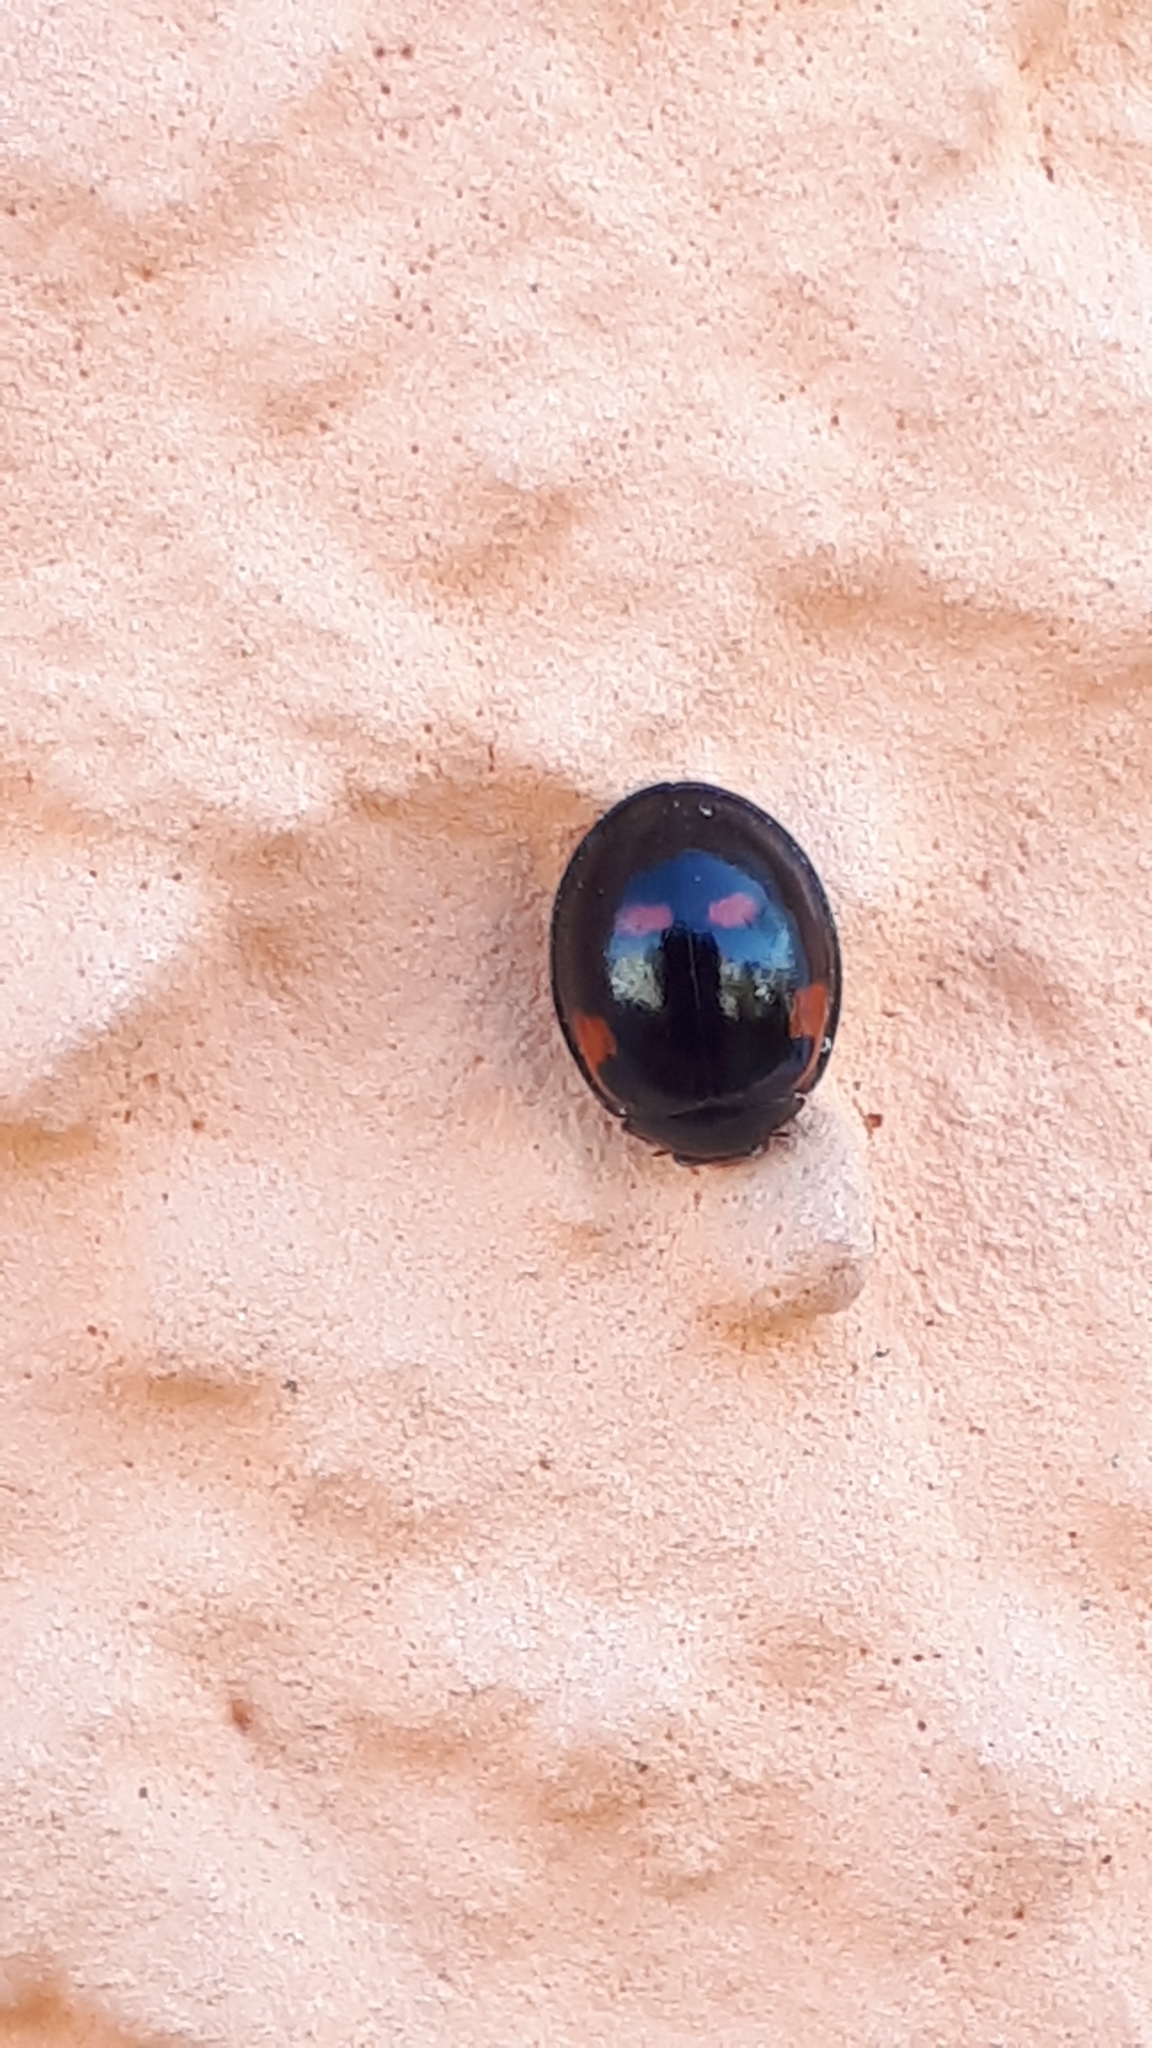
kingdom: Animalia
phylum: Arthropoda
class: Insecta
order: Coleoptera
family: Coccinellidae
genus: Brumus
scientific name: Brumus quadripustulatus
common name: Ladybird beetle
